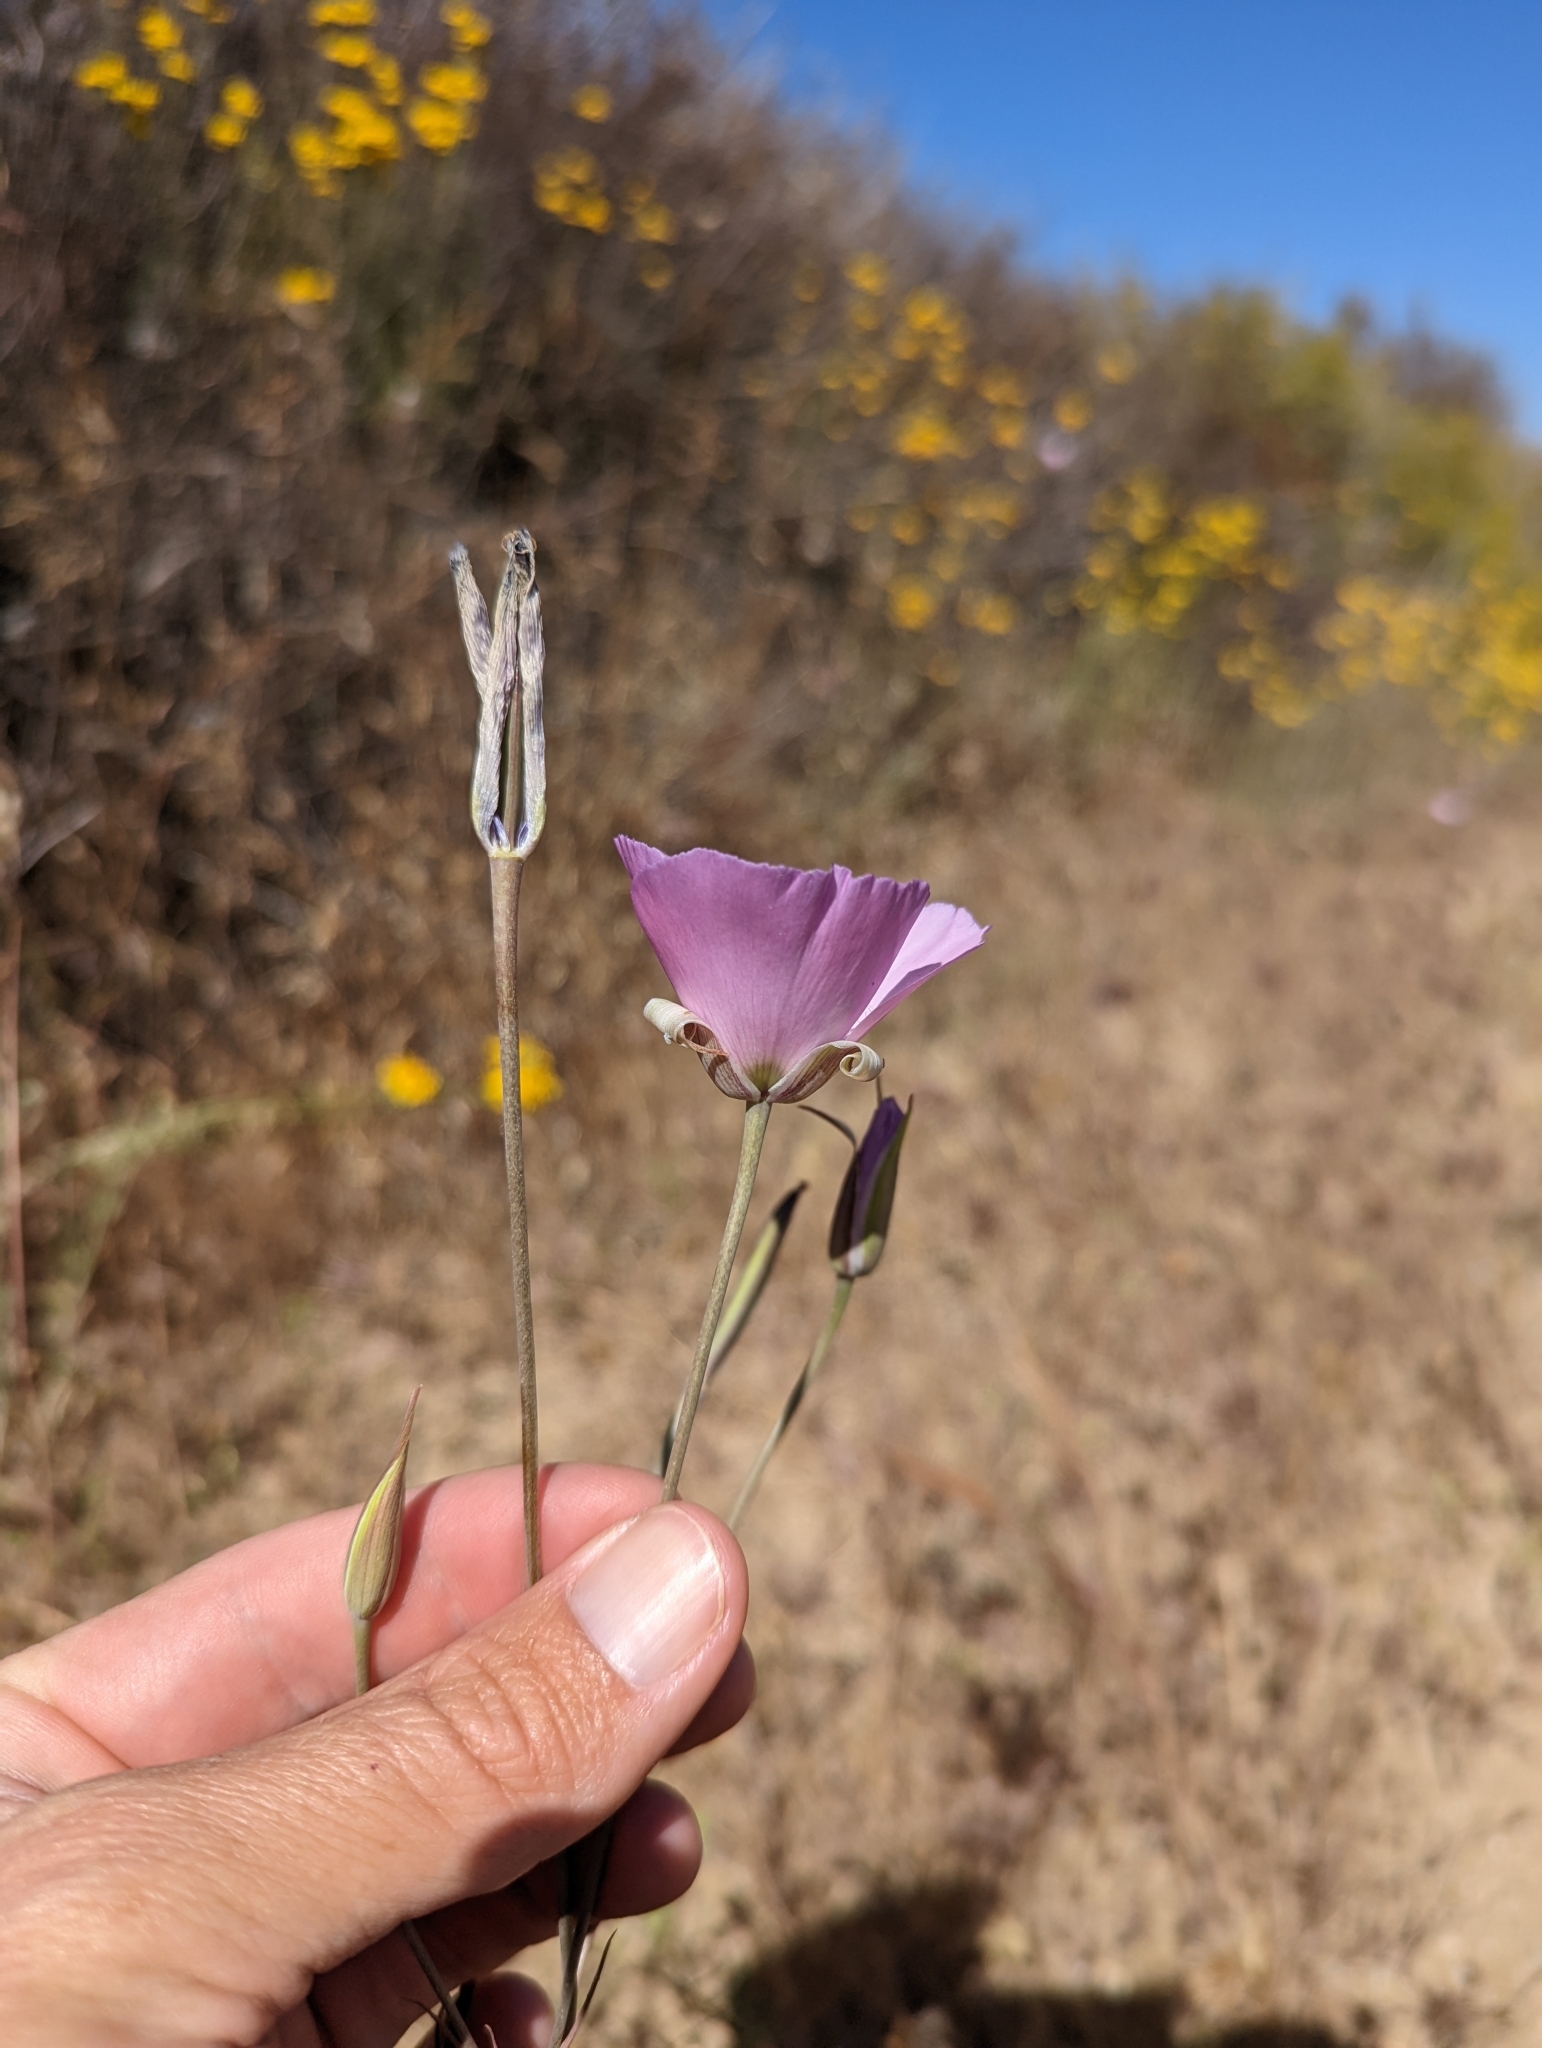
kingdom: Plantae
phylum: Tracheophyta
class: Liliopsida
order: Liliales
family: Liliaceae
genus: Calochortus
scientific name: Calochortus splendens
